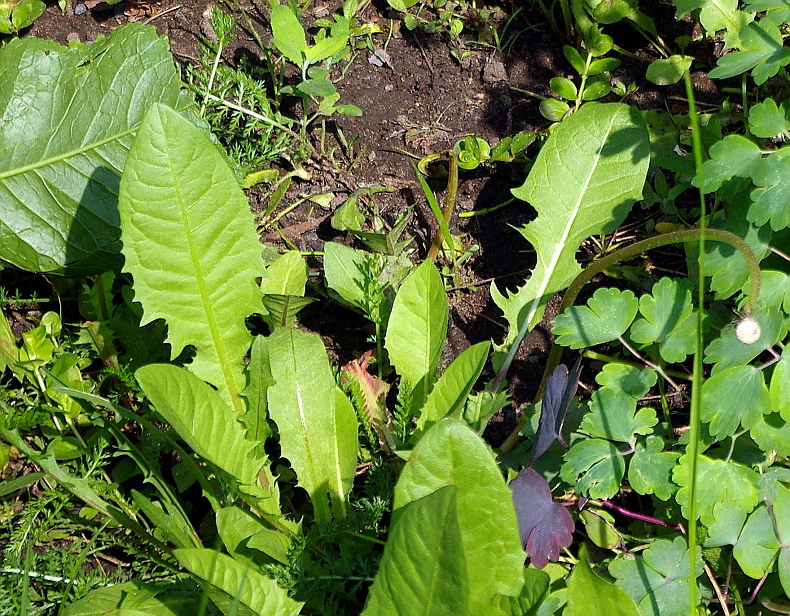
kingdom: Plantae
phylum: Tracheophyta
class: Magnoliopsida
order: Asterales
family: Asteraceae
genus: Taraxacum
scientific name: Taraxacum officinale
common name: Common dandelion
